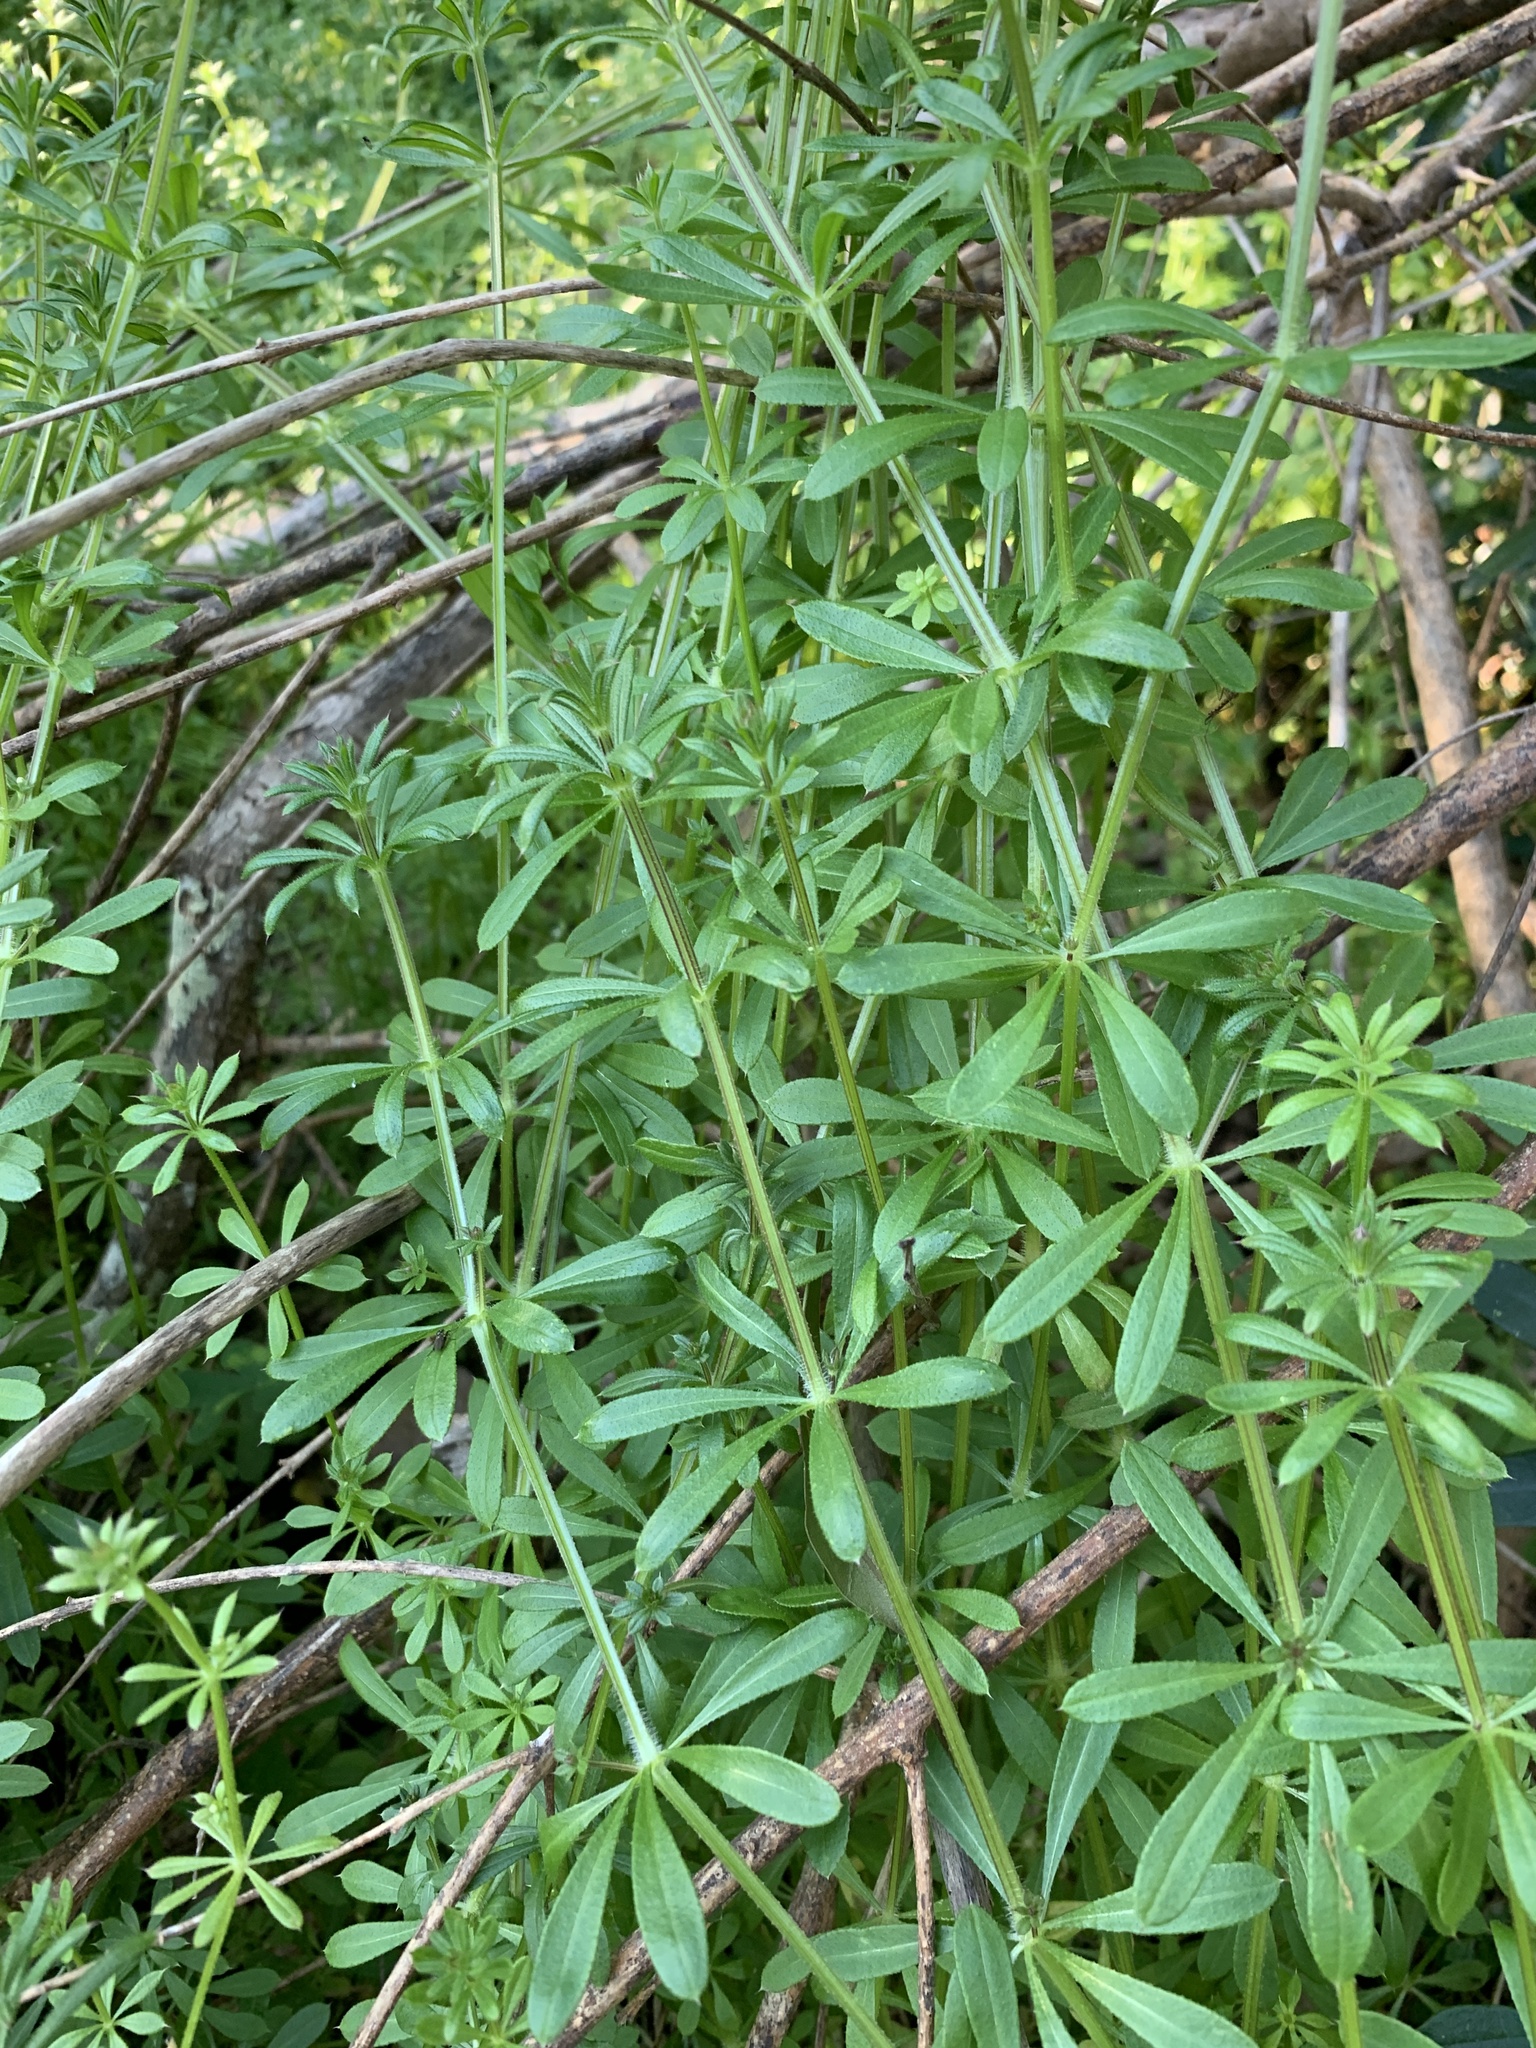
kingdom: Plantae
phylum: Tracheophyta
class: Magnoliopsida
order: Gentianales
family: Rubiaceae
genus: Galium
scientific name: Galium aparine
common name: Cleavers
